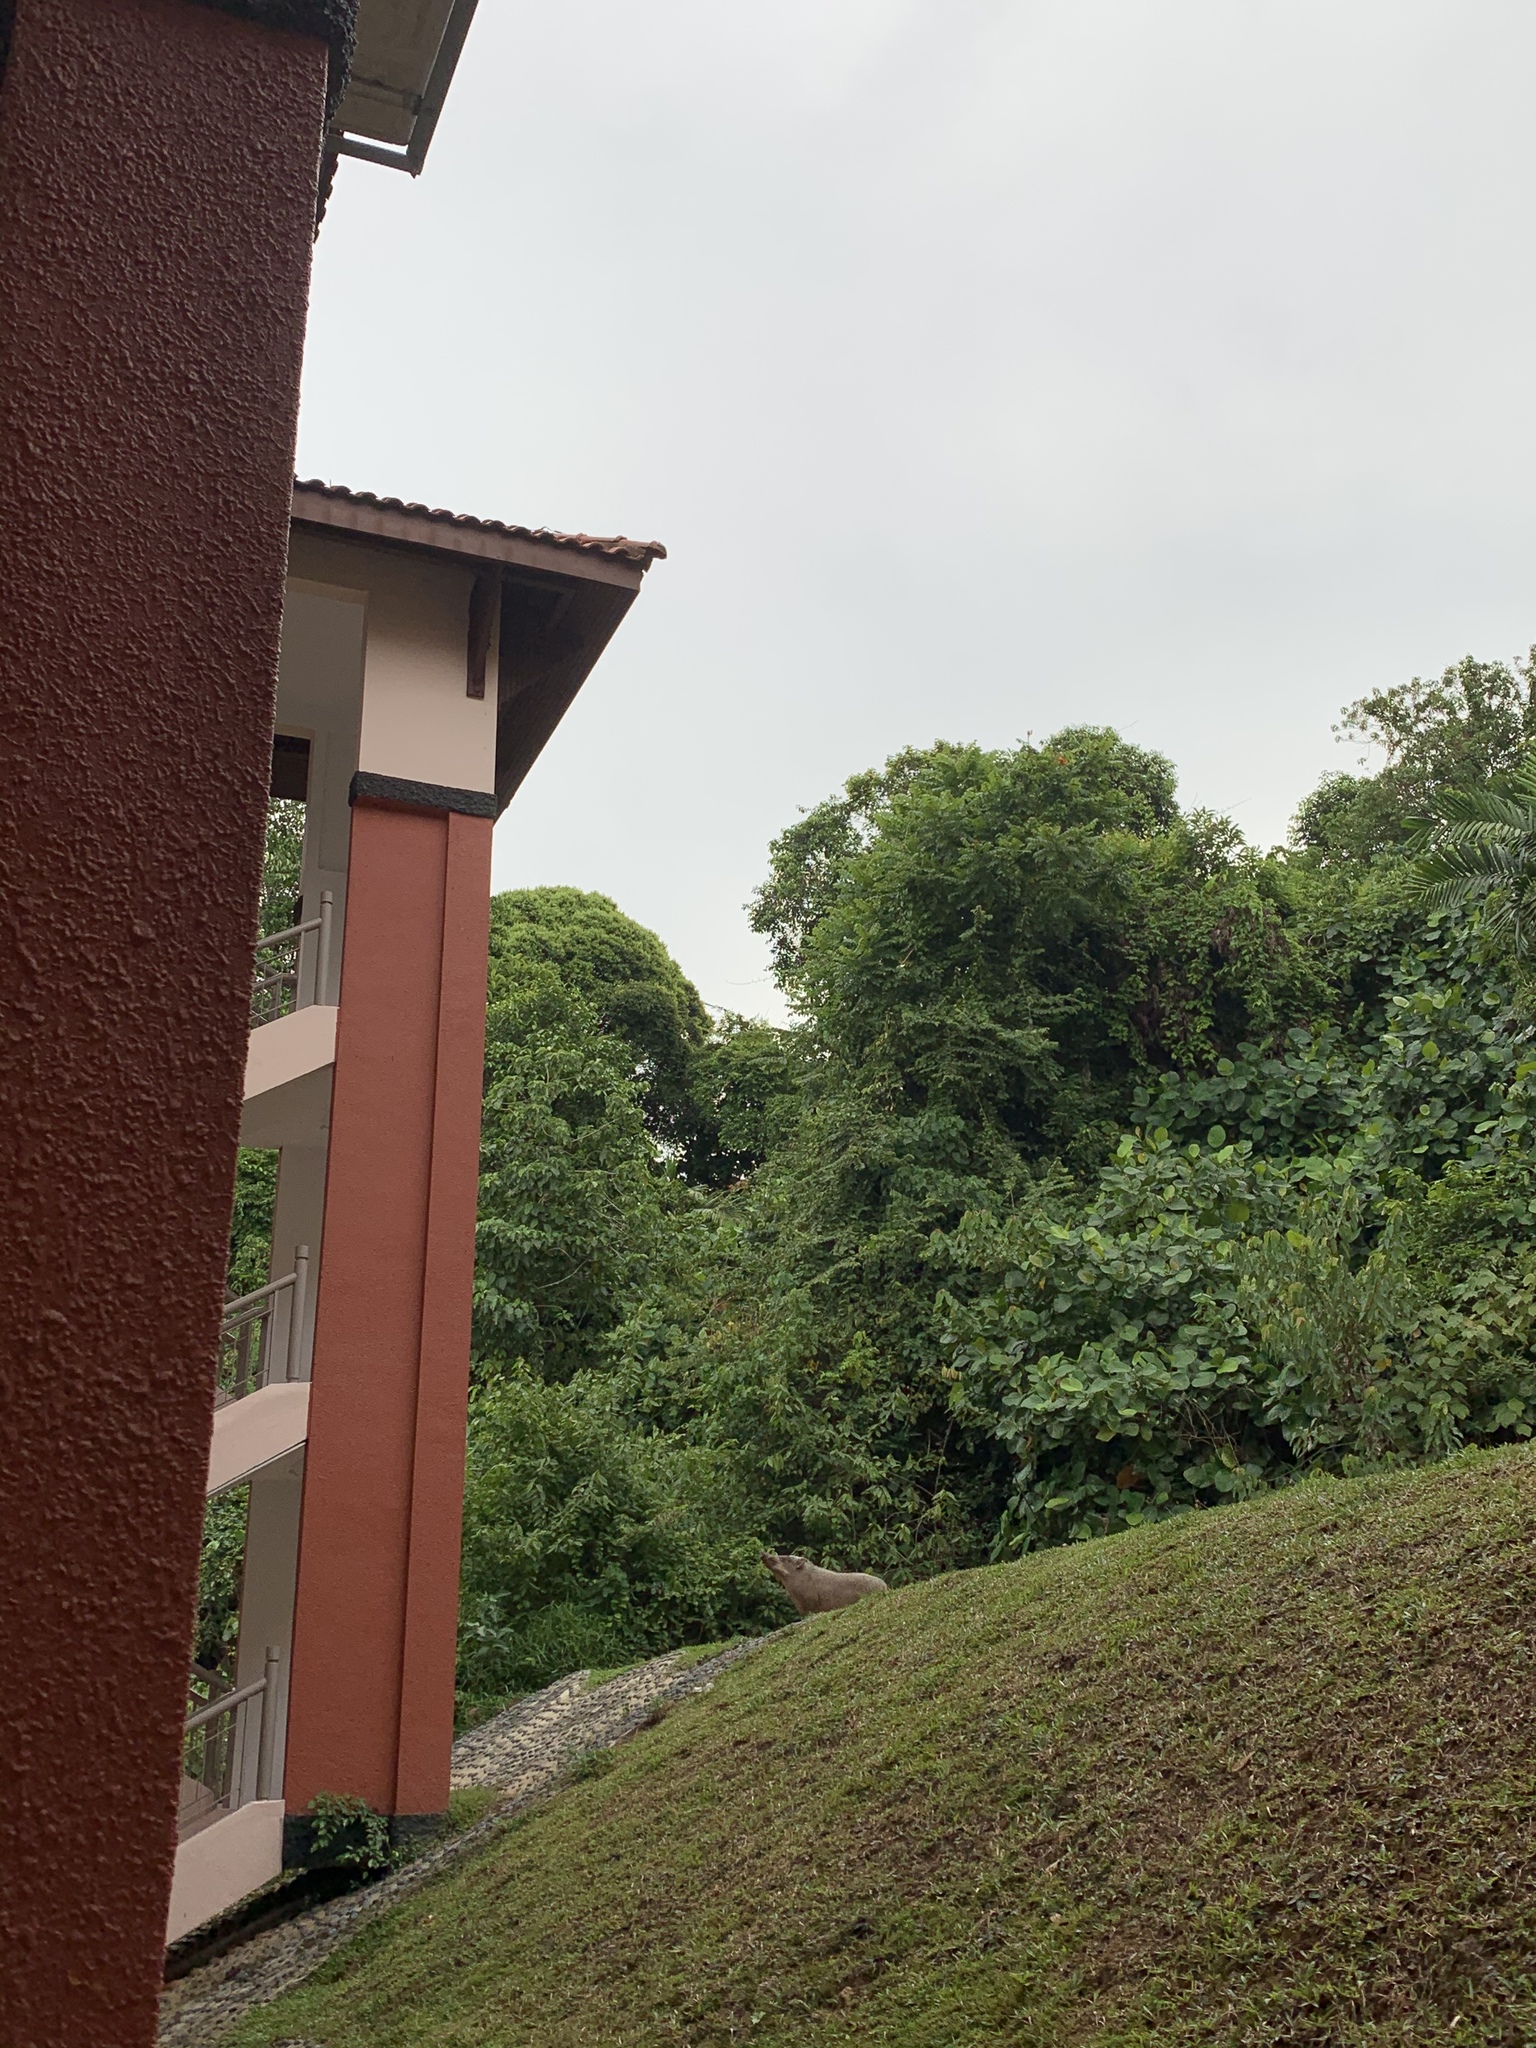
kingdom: Animalia
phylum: Chordata
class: Mammalia
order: Artiodactyla
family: Suidae
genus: Sus
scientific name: Sus scrofa
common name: Wild boar
